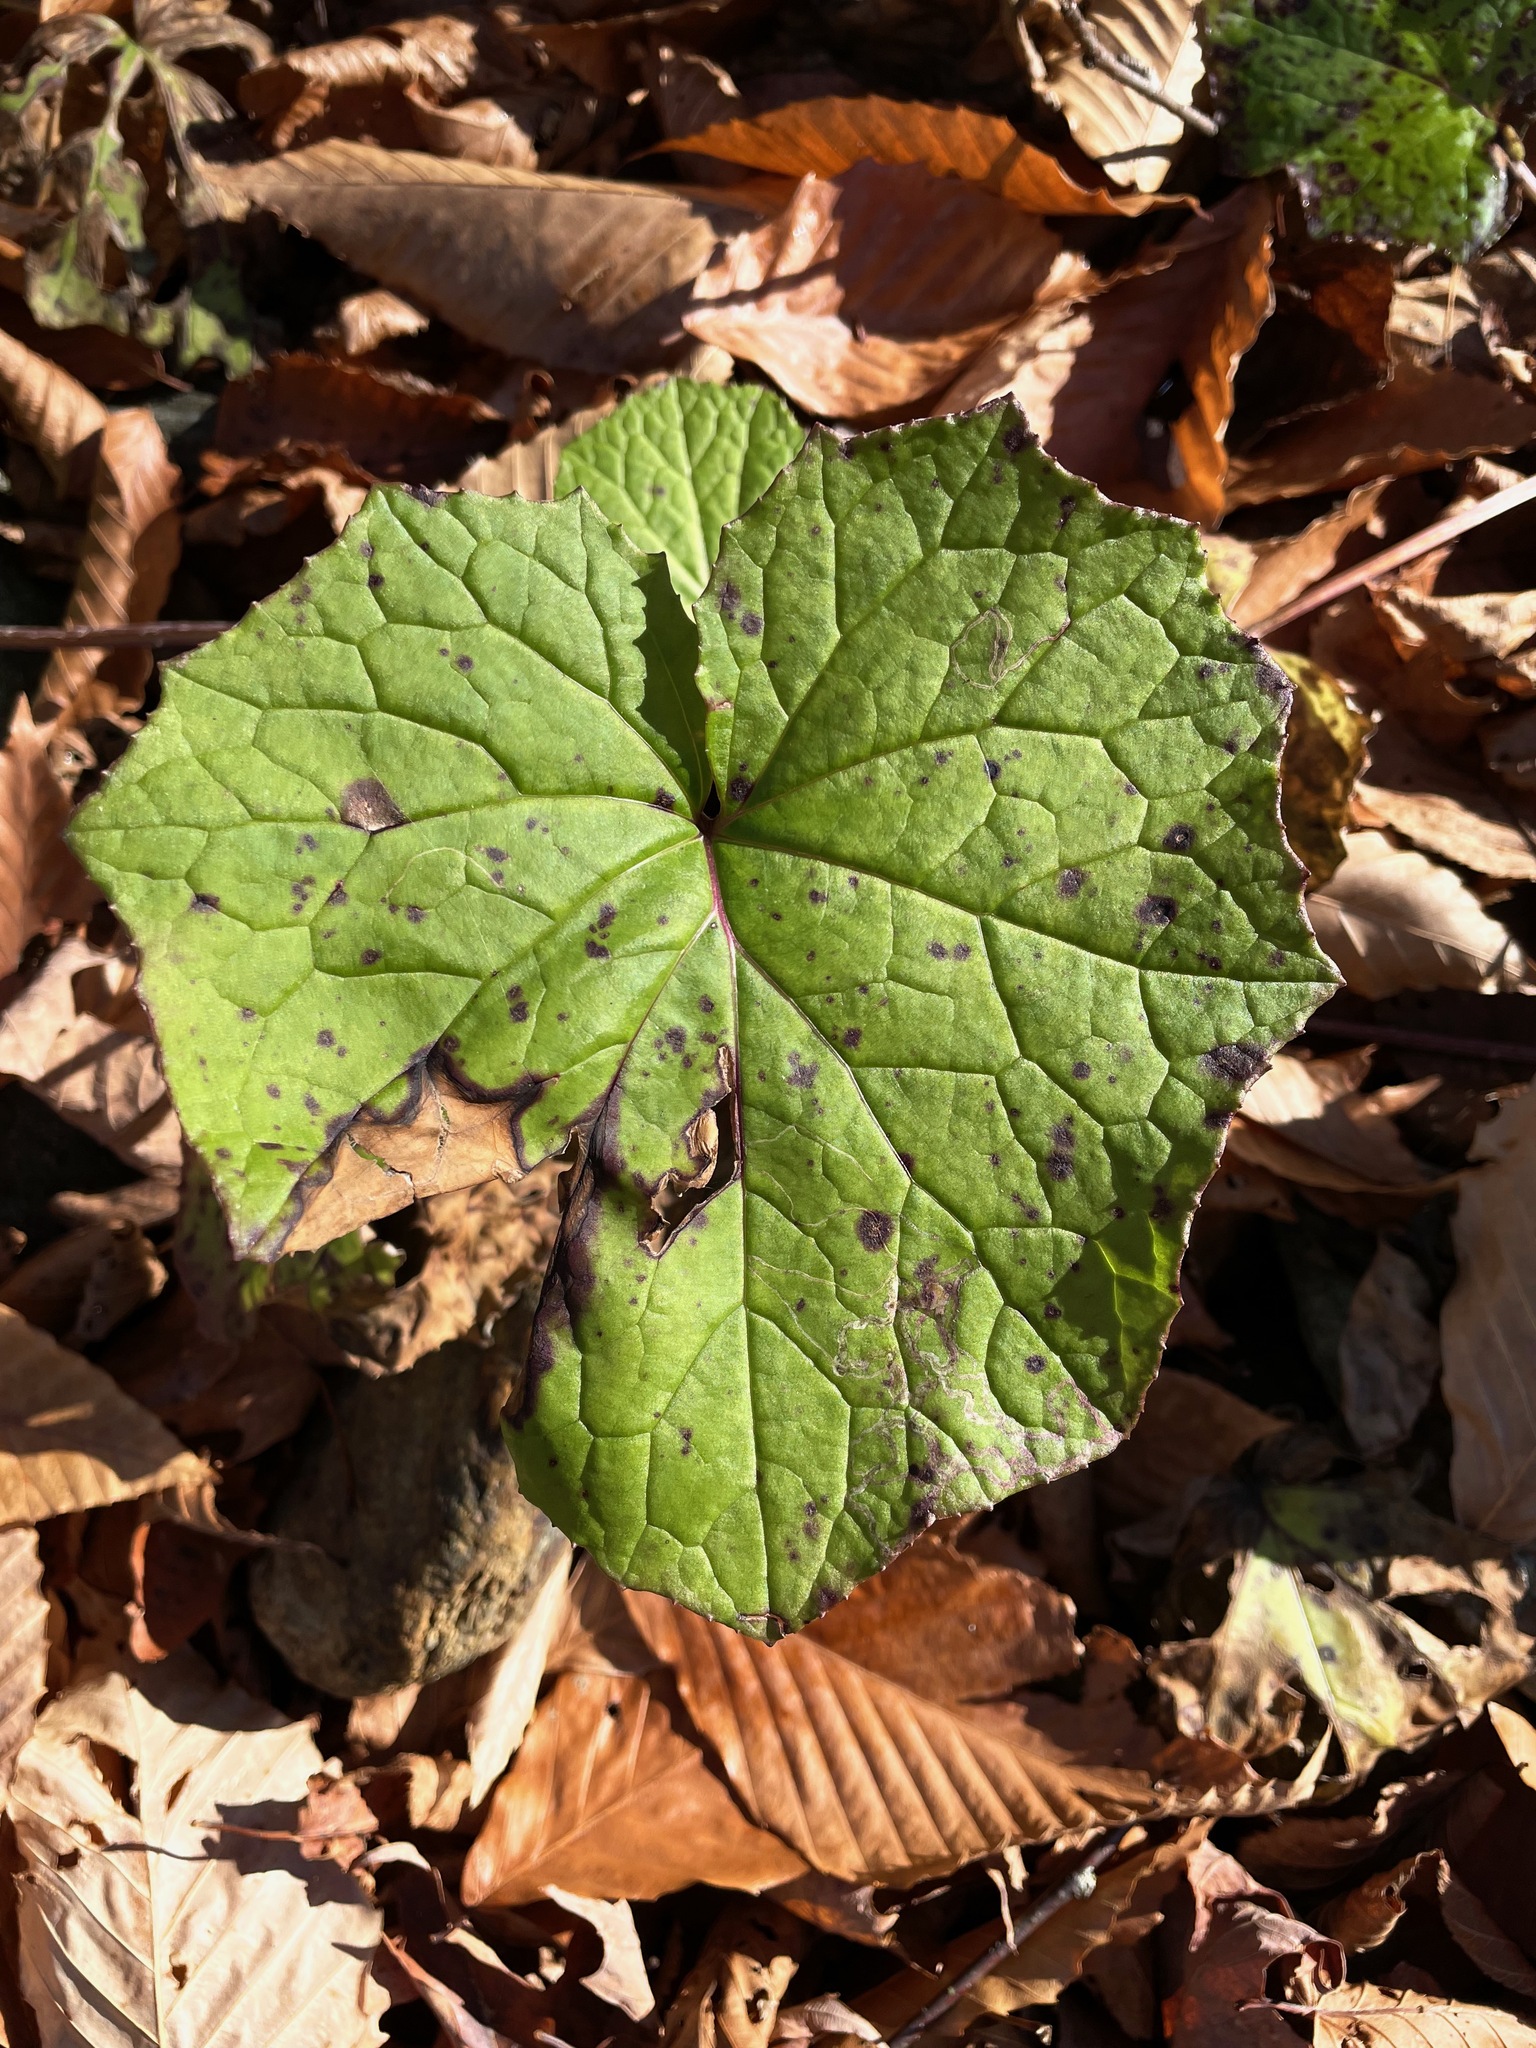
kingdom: Plantae
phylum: Tracheophyta
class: Magnoliopsida
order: Asterales
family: Asteraceae
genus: Tussilago
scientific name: Tussilago farfara
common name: Coltsfoot
